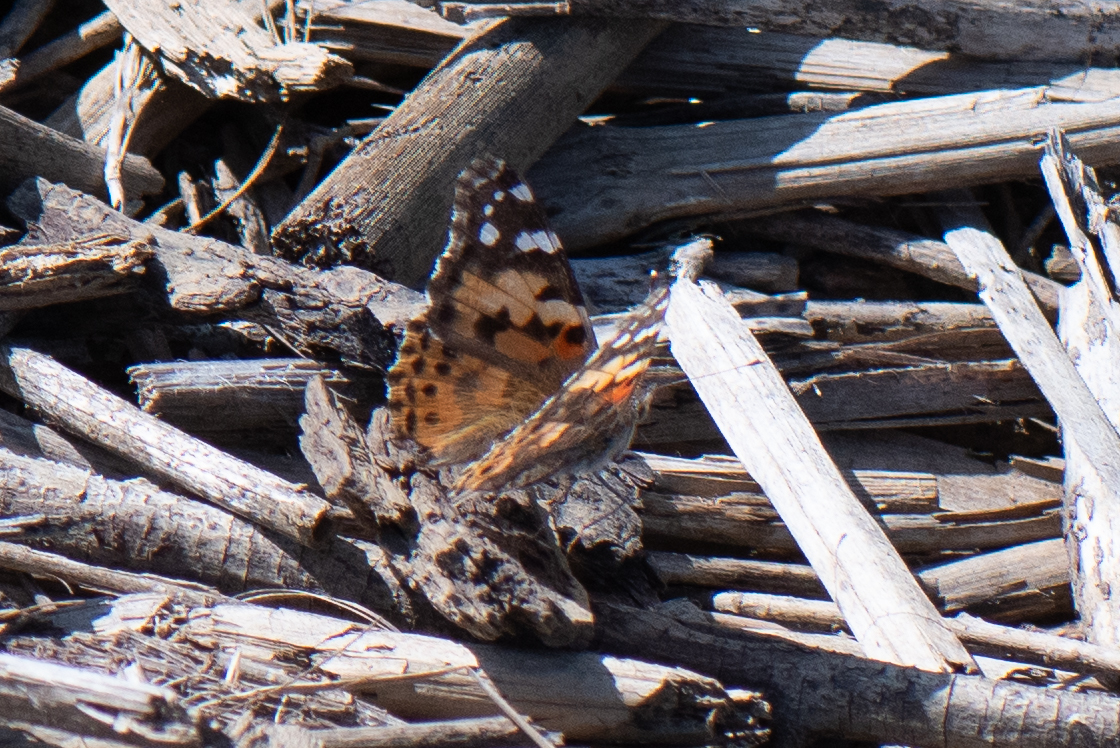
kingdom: Animalia
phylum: Arthropoda
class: Insecta
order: Lepidoptera
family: Nymphalidae
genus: Vanessa
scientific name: Vanessa cardui
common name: Painted lady
